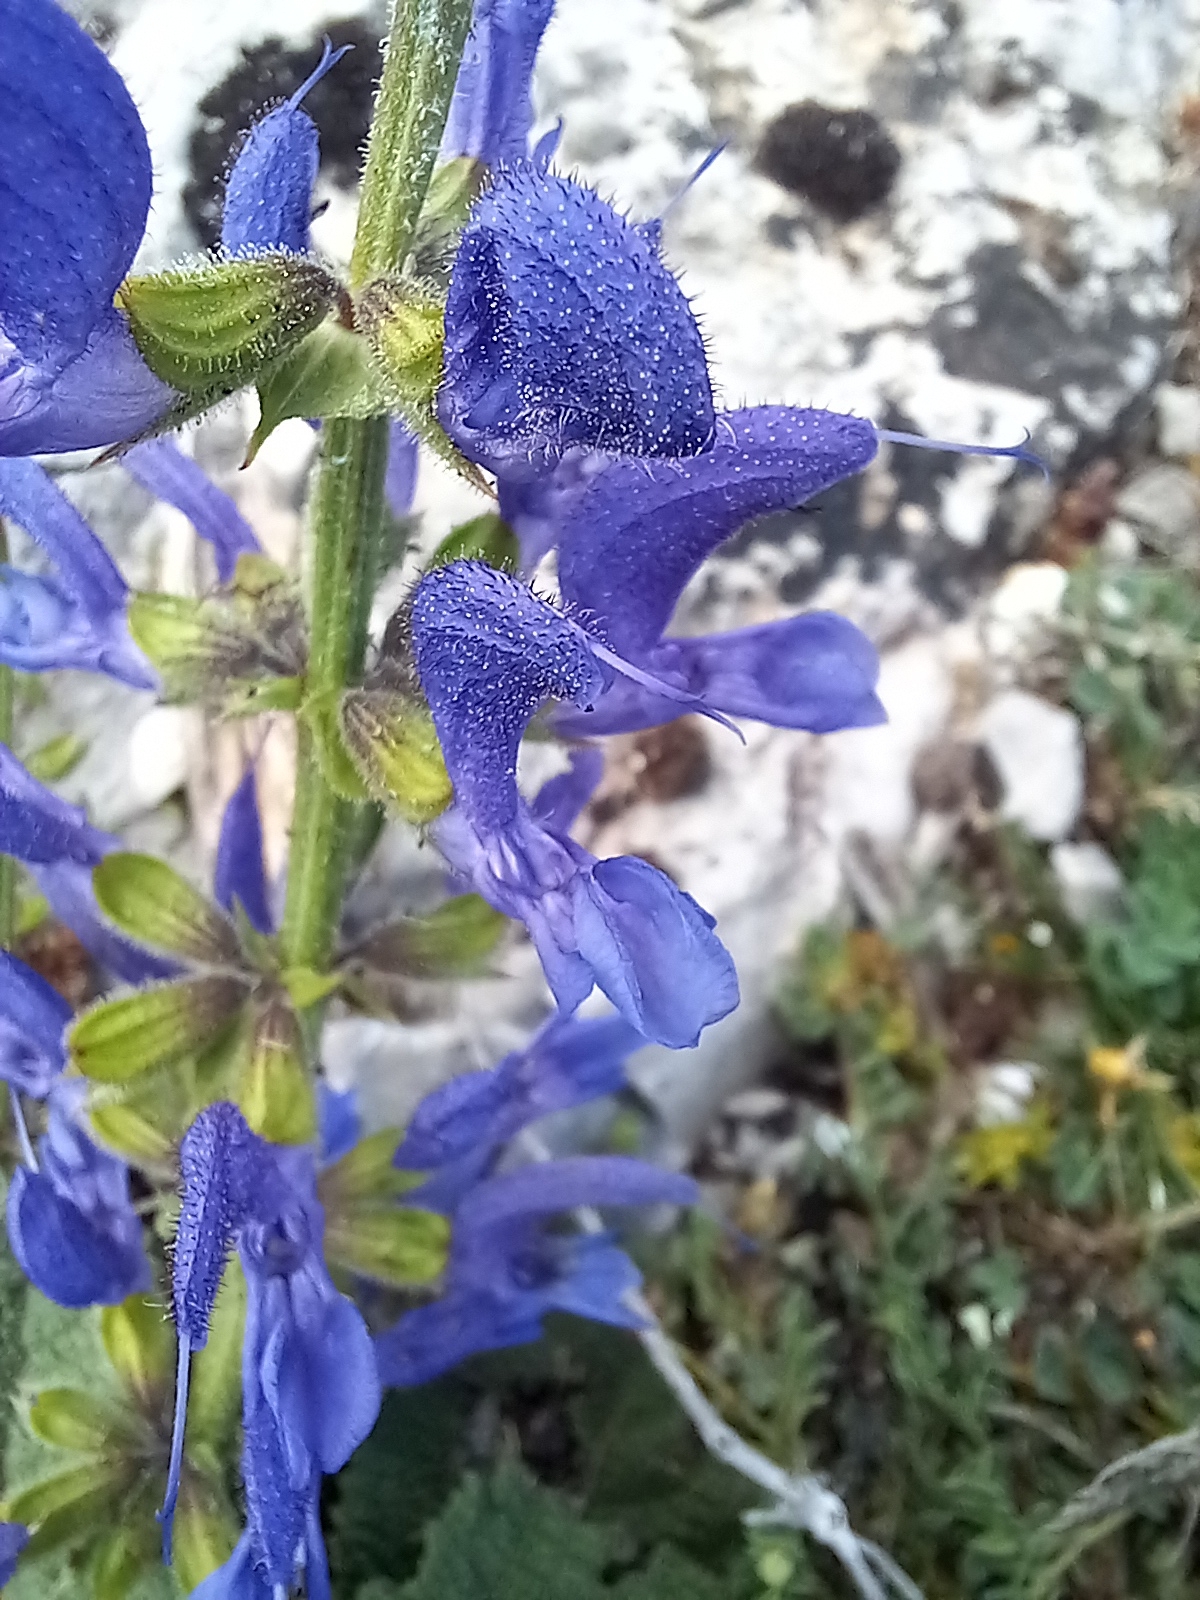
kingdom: Plantae
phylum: Tracheophyta
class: Magnoliopsida
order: Lamiales
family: Lamiaceae
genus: Salvia
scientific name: Salvia pratensis
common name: Meadow sage
